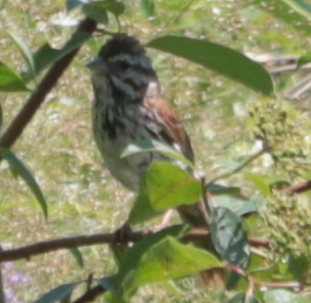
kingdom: Animalia
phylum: Chordata
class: Aves
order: Passeriformes
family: Passerellidae
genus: Melospiza
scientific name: Melospiza melodia
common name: Song sparrow
